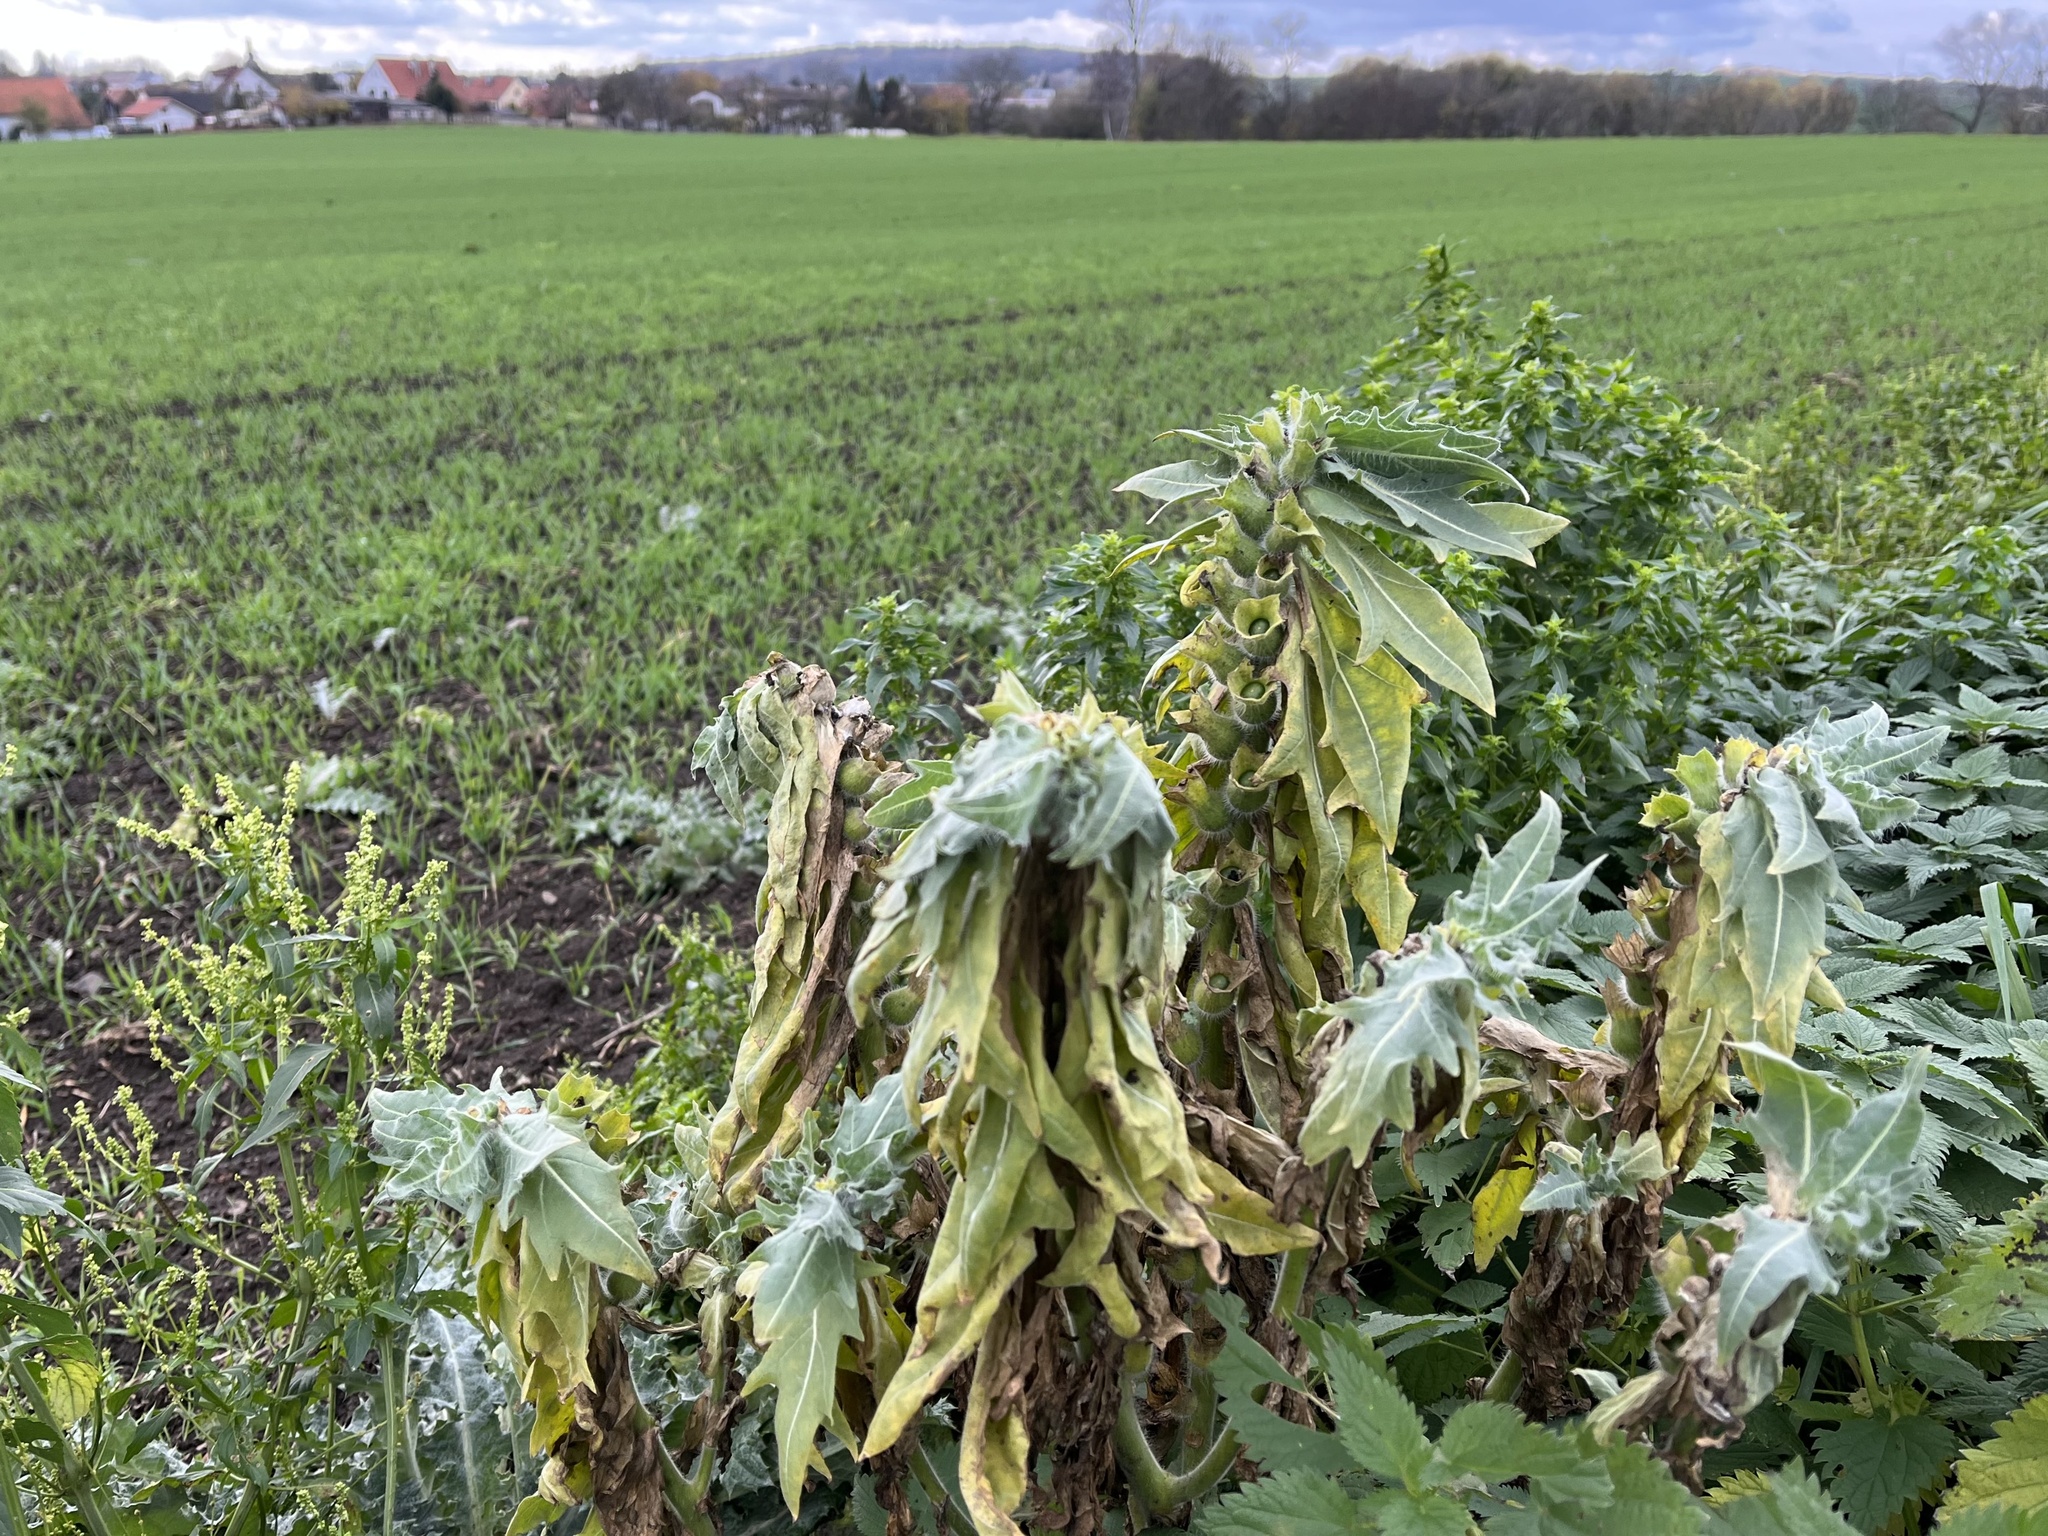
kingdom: Plantae
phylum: Tracheophyta
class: Magnoliopsida
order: Solanales
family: Solanaceae
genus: Hyoscyamus
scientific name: Hyoscyamus niger
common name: Henbane
